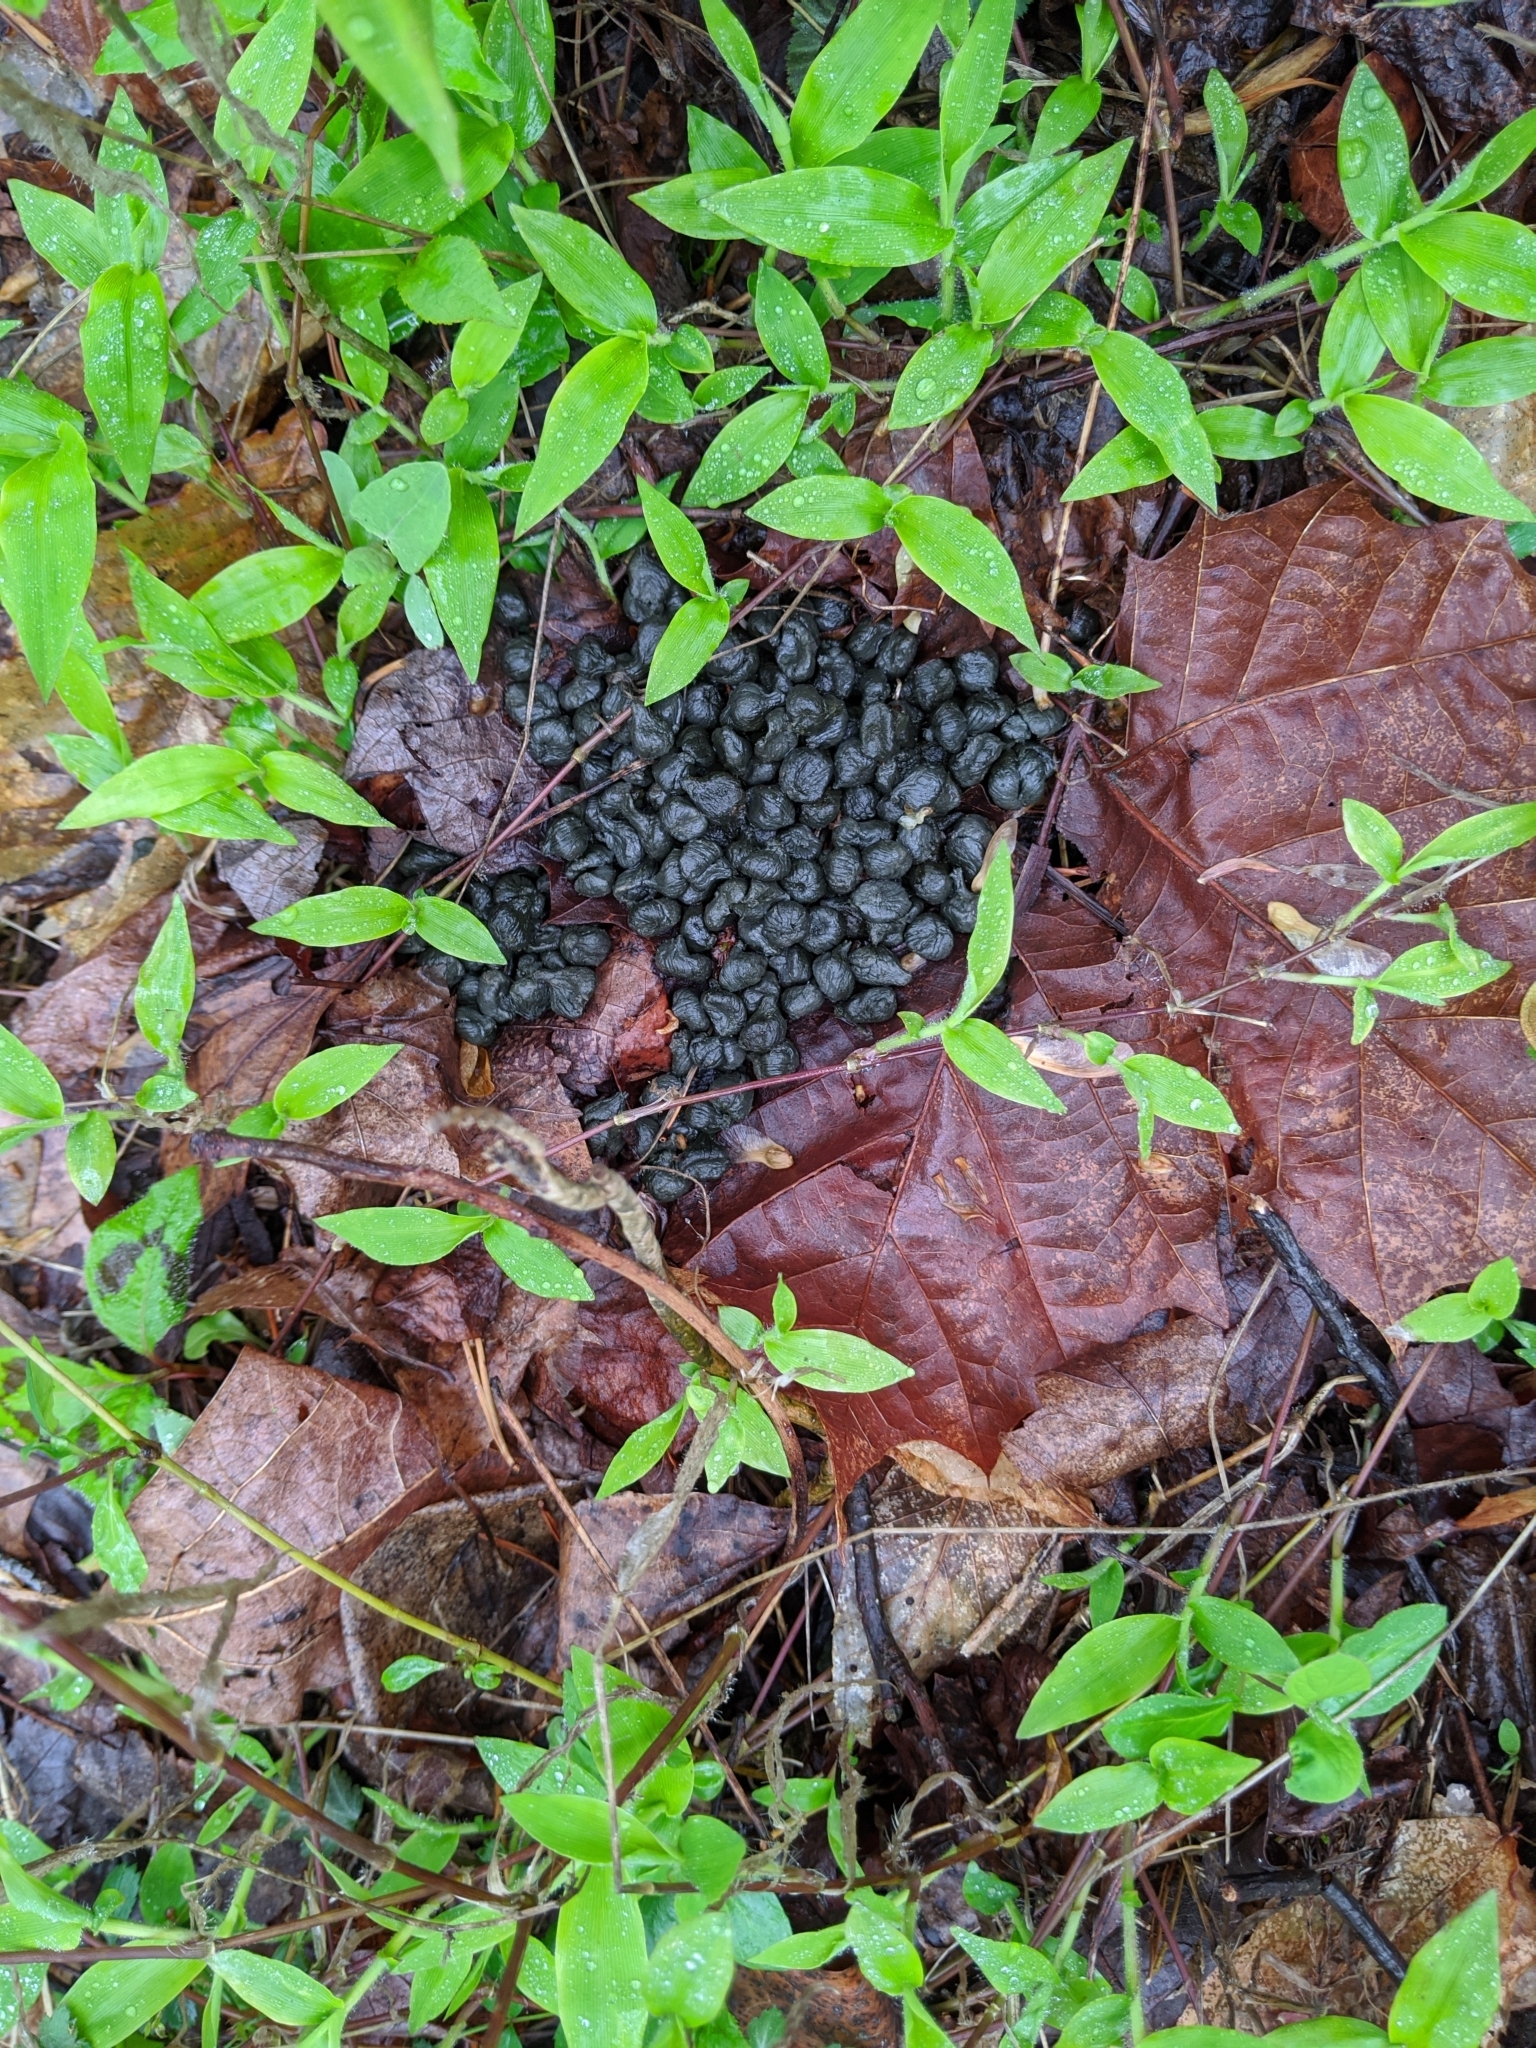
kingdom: Animalia
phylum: Chordata
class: Mammalia
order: Artiodactyla
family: Cervidae
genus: Odocoileus
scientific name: Odocoileus virginianus
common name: White-tailed deer
